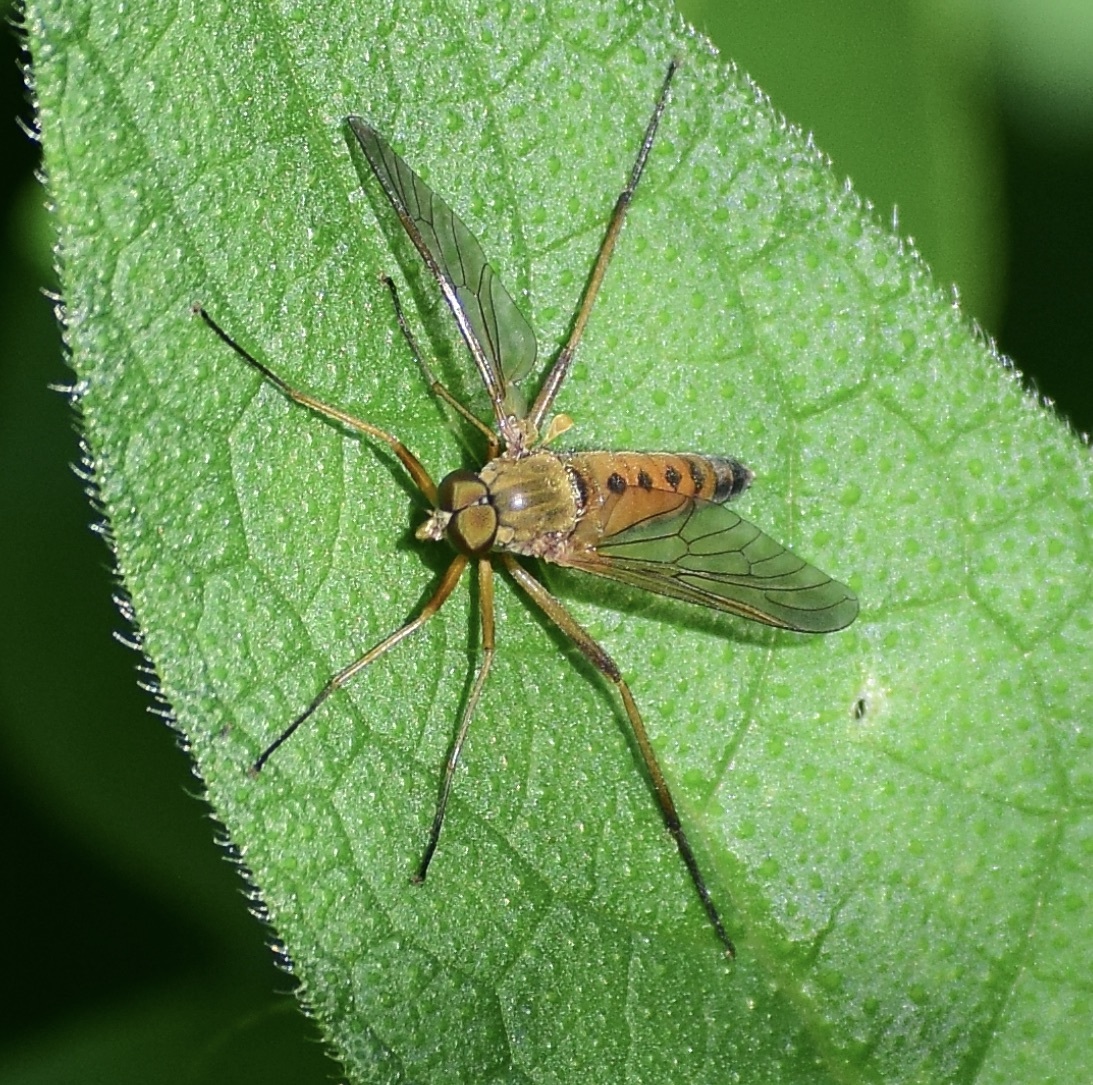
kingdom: Animalia
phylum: Arthropoda
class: Insecta
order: Diptera
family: Rhagionidae
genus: Rhagio
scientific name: Rhagio tringaria
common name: Marsh snipefly
